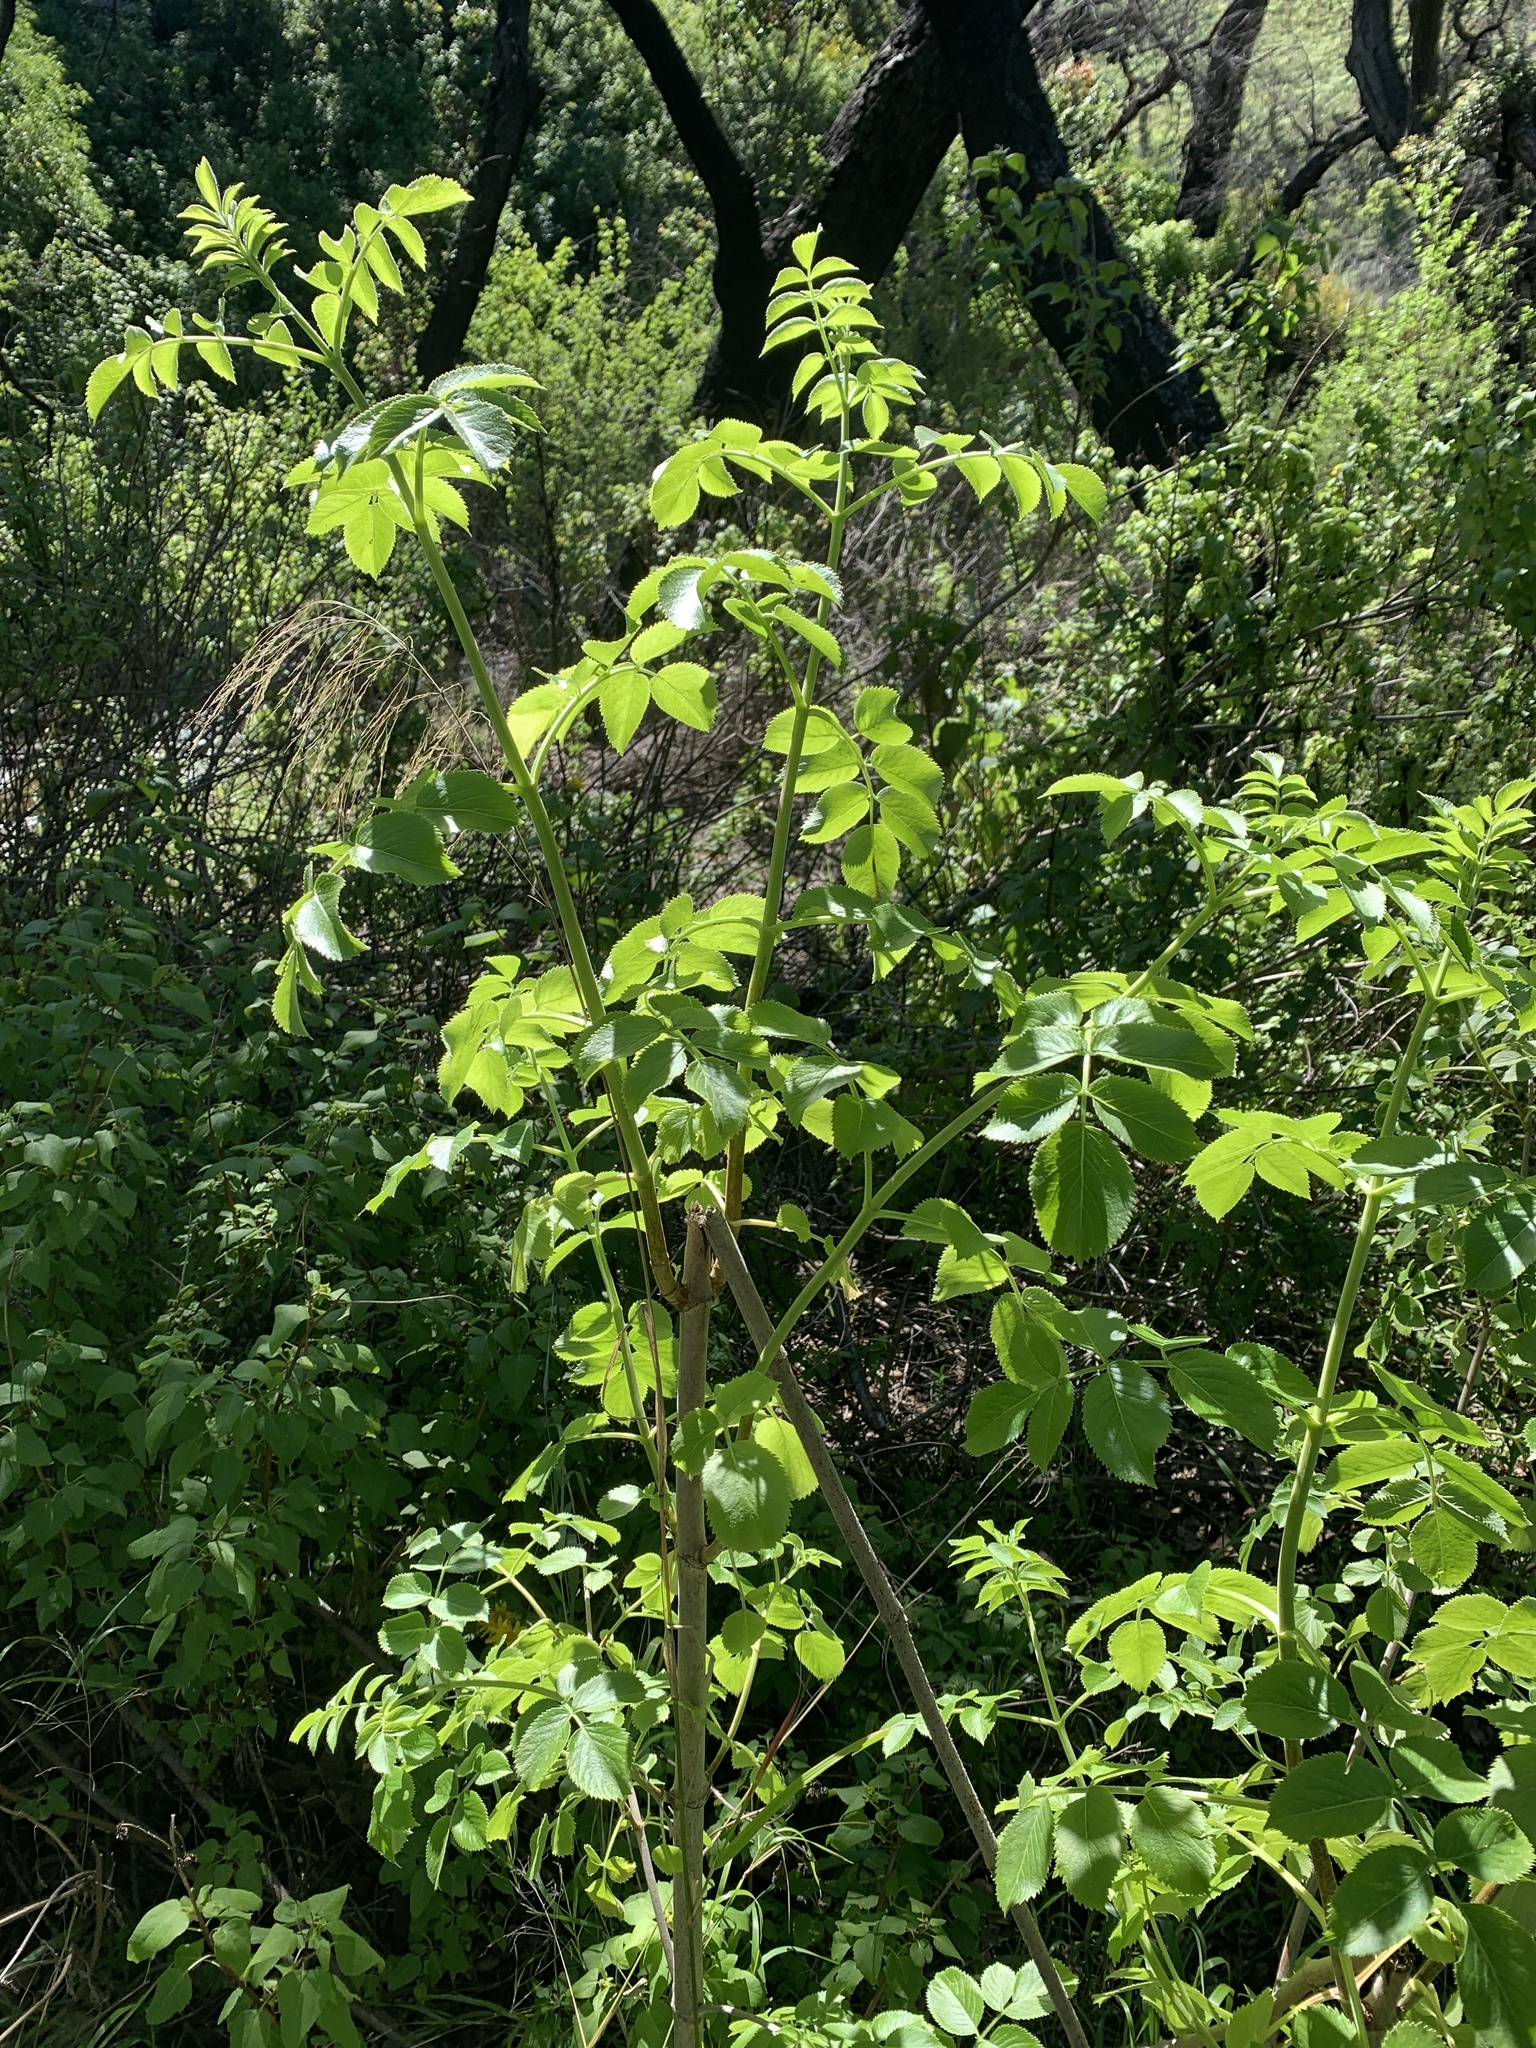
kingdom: Plantae
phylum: Tracheophyta
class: Magnoliopsida
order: Dipsacales
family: Viburnaceae
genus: Sambucus
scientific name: Sambucus cerulea
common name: Blue elder
